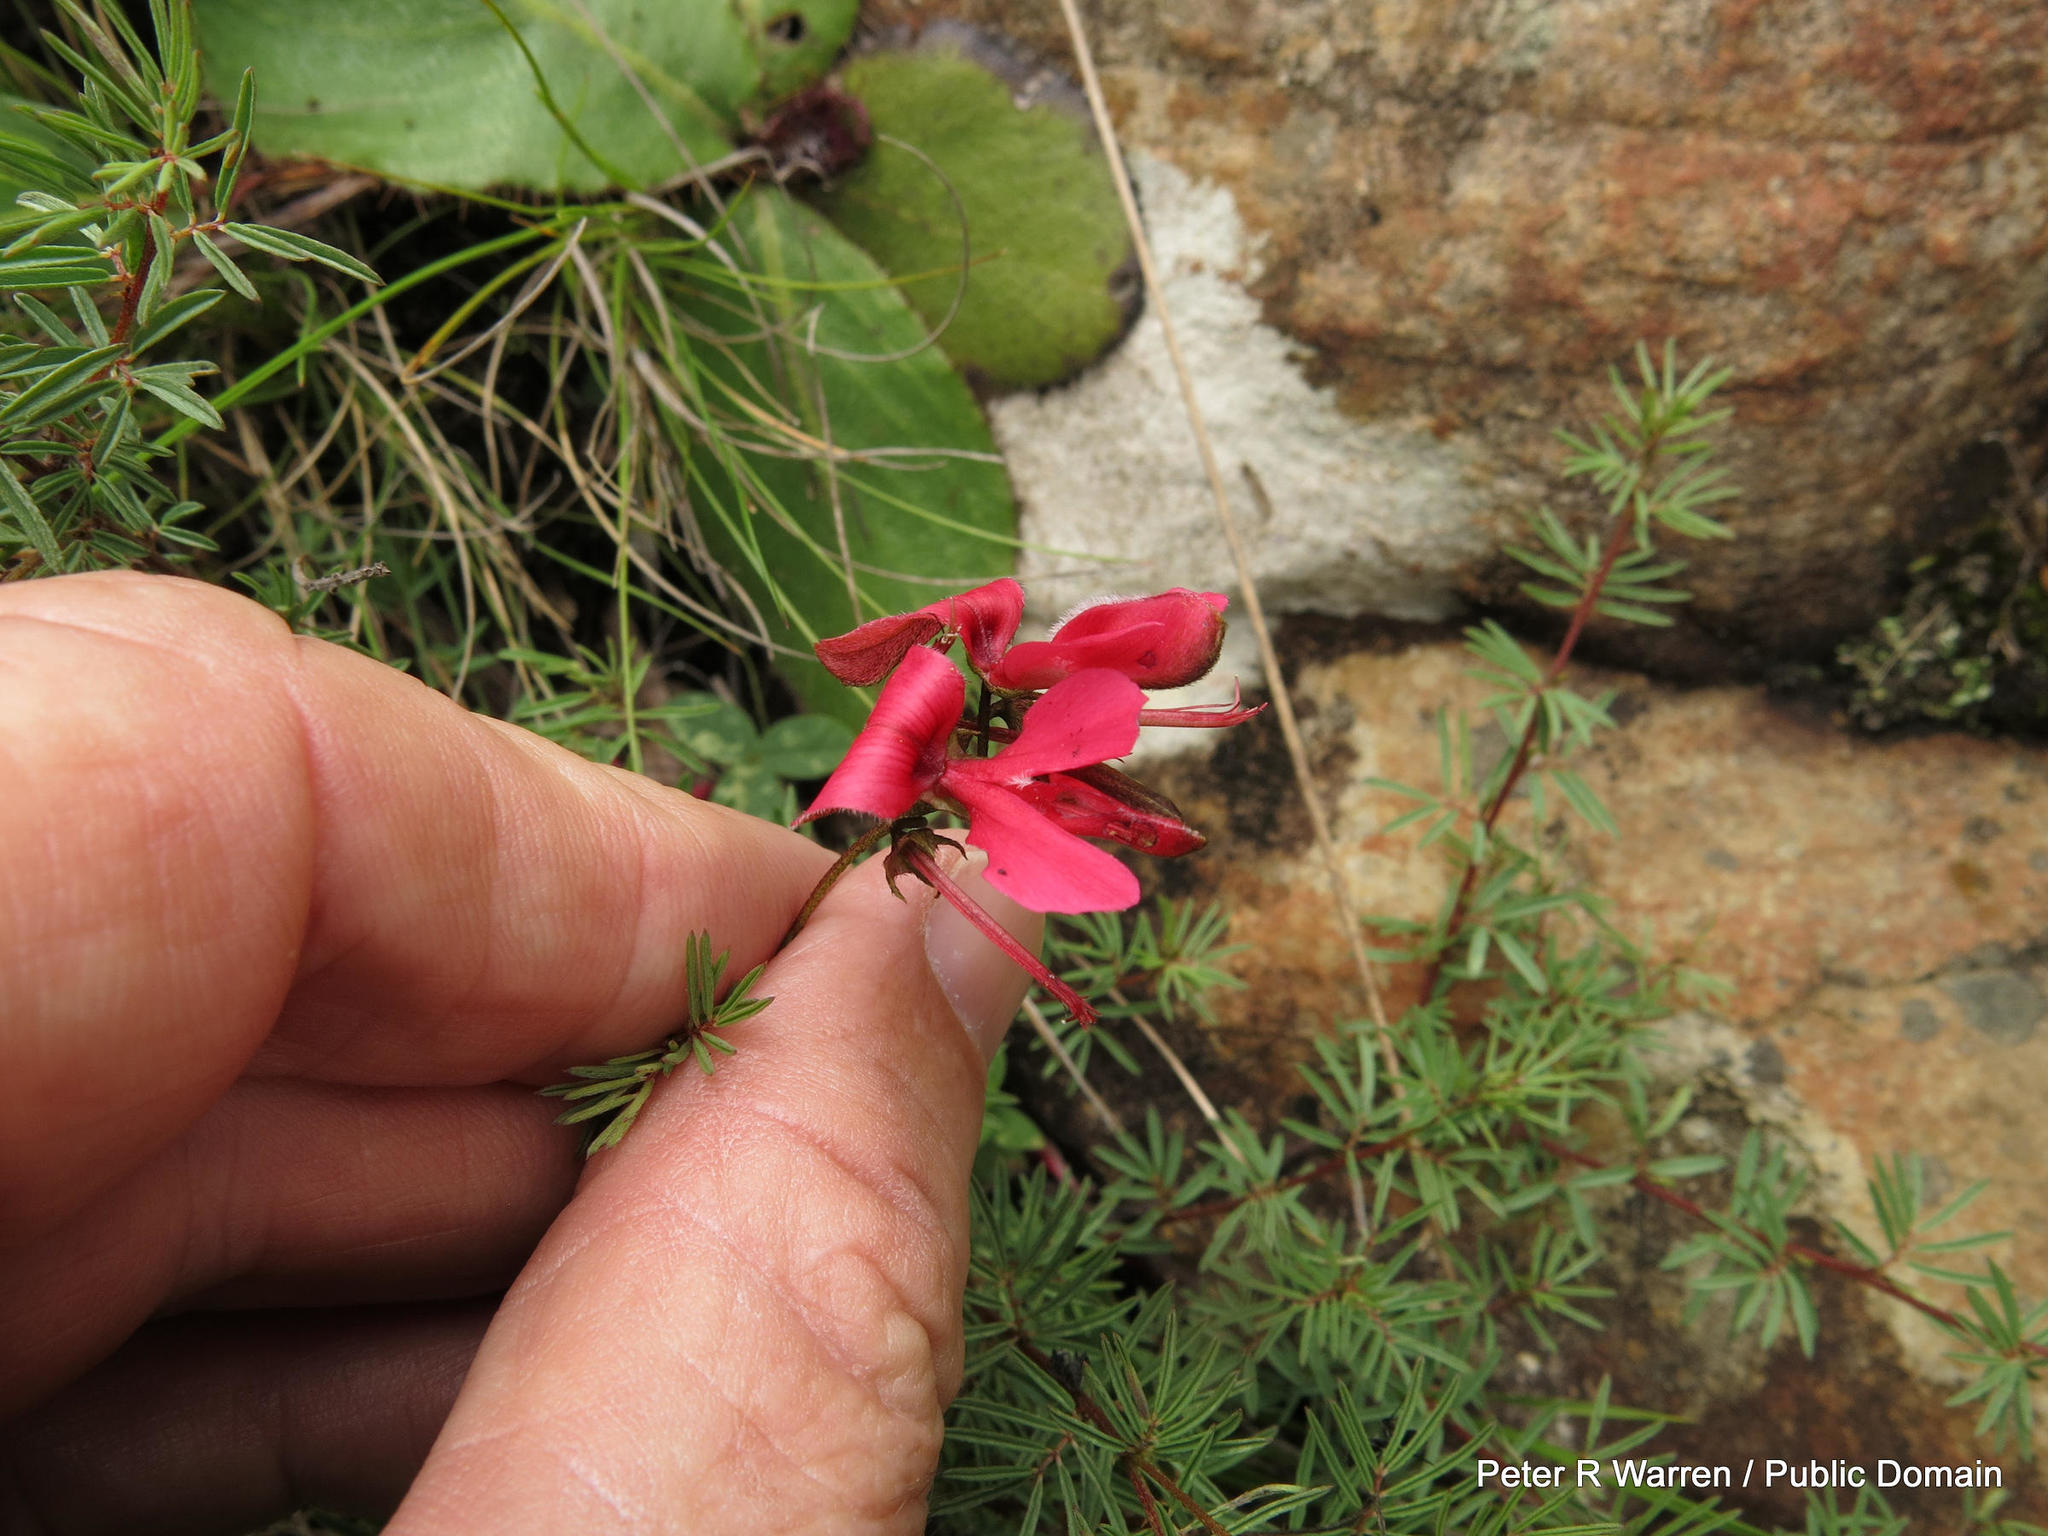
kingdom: Plantae
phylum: Tracheophyta
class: Magnoliopsida
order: Fabales
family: Fabaceae
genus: Indigofera
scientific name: Indigofera hedyantha
